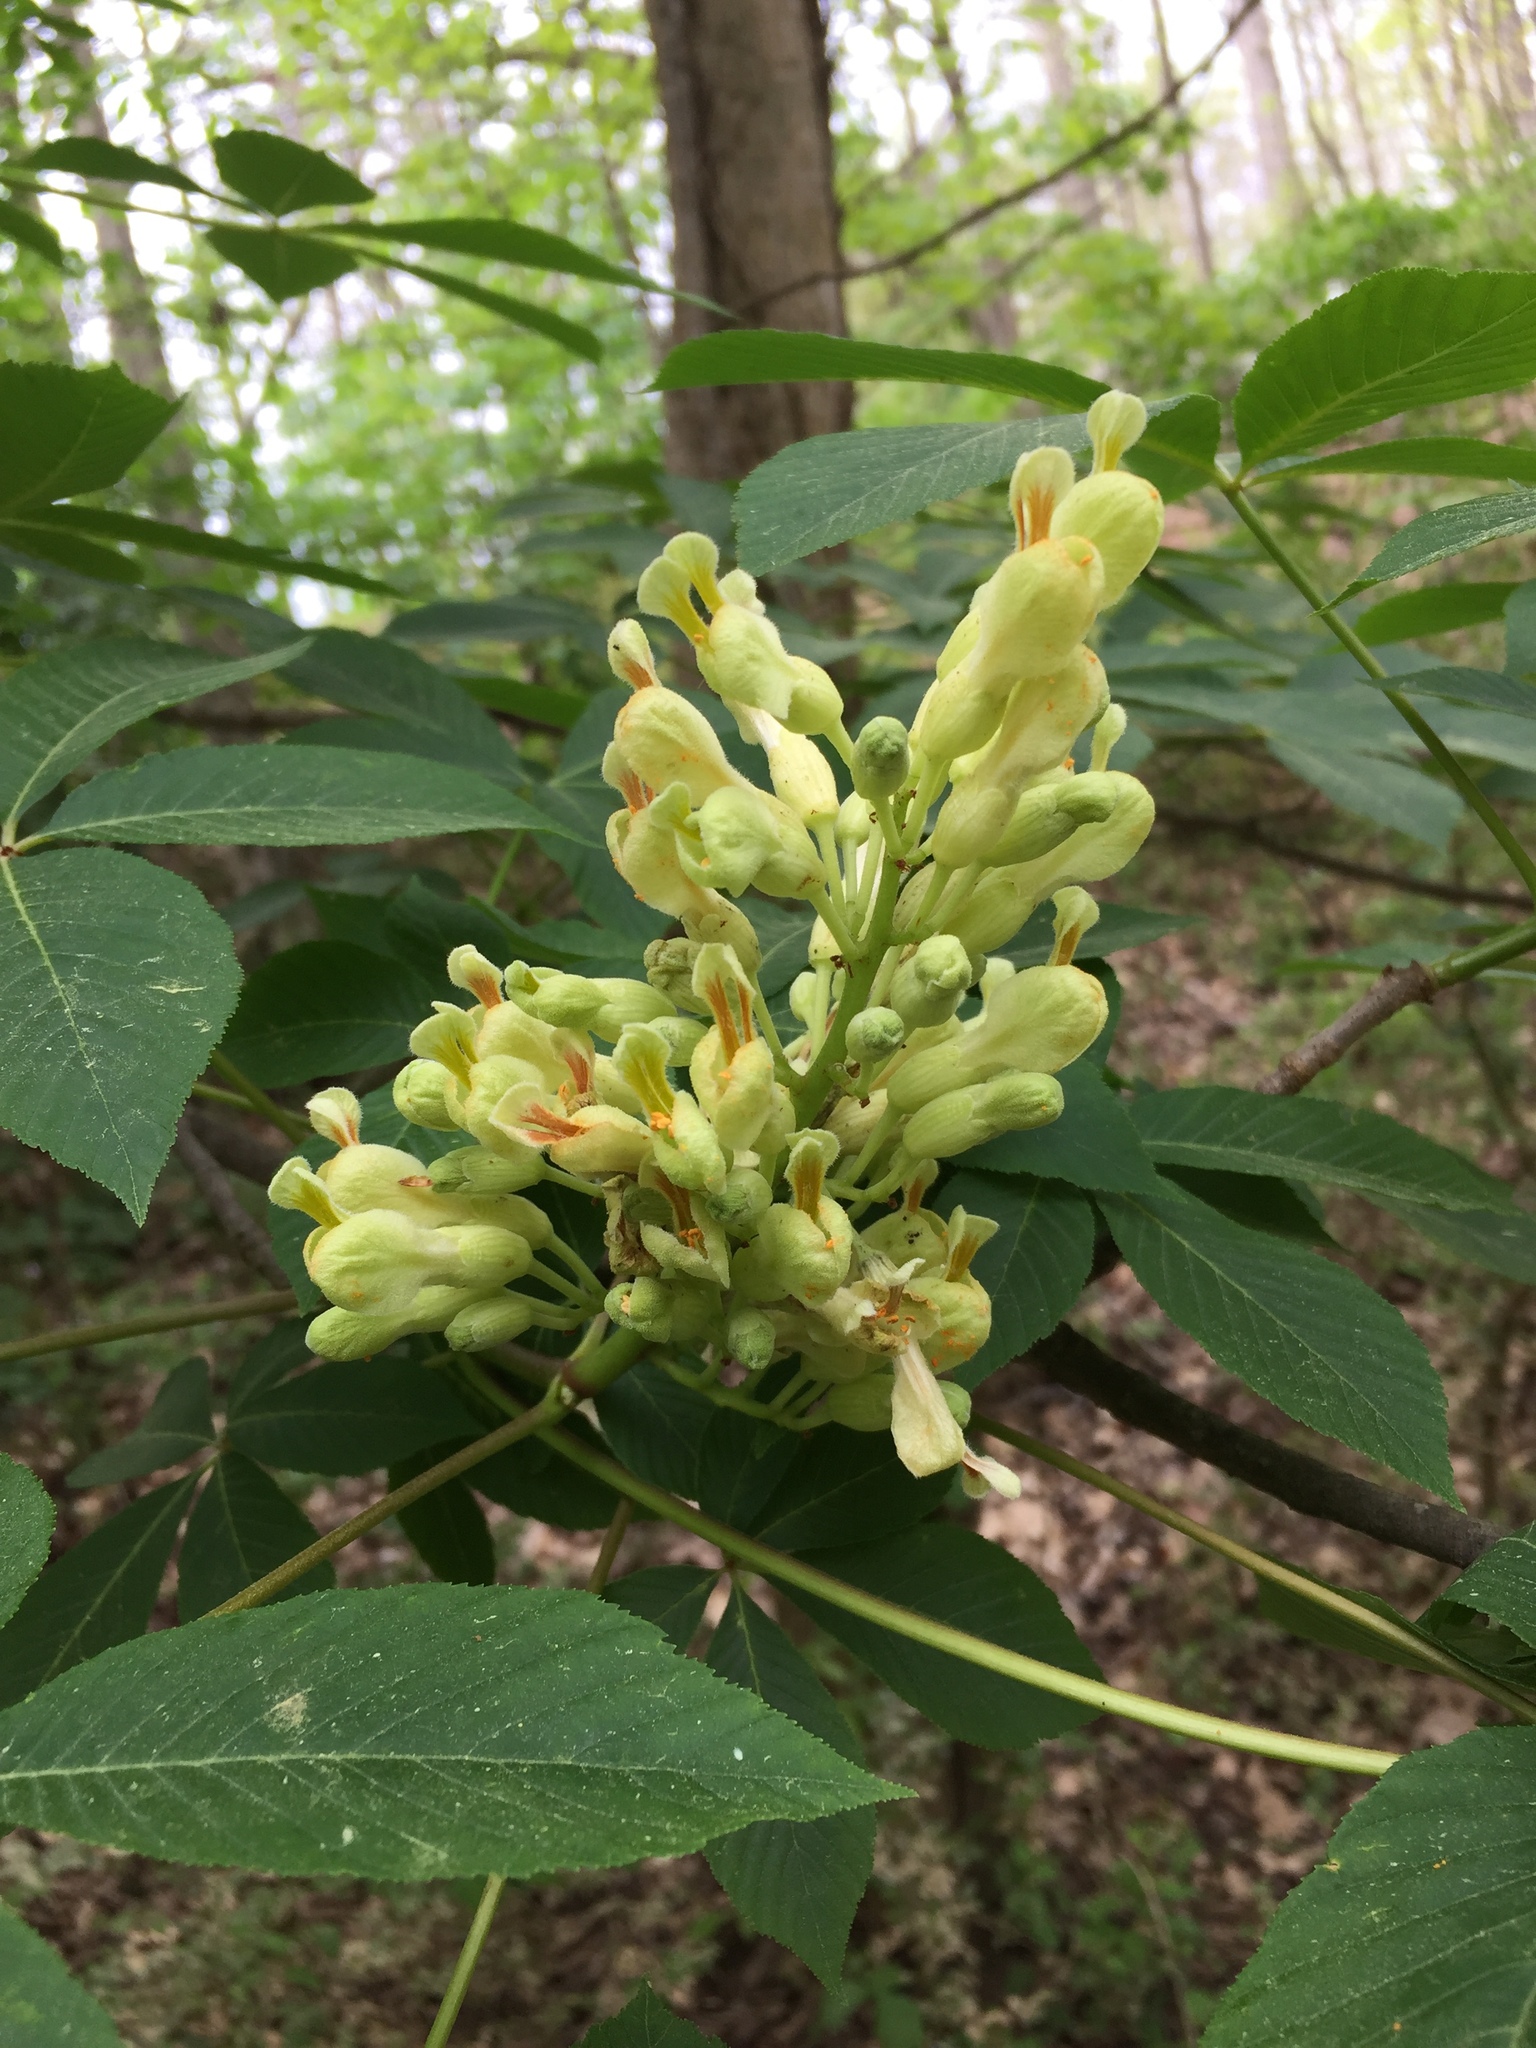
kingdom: Plantae
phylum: Tracheophyta
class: Magnoliopsida
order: Sapindales
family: Sapindaceae
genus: Aesculus
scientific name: Aesculus sylvatica
